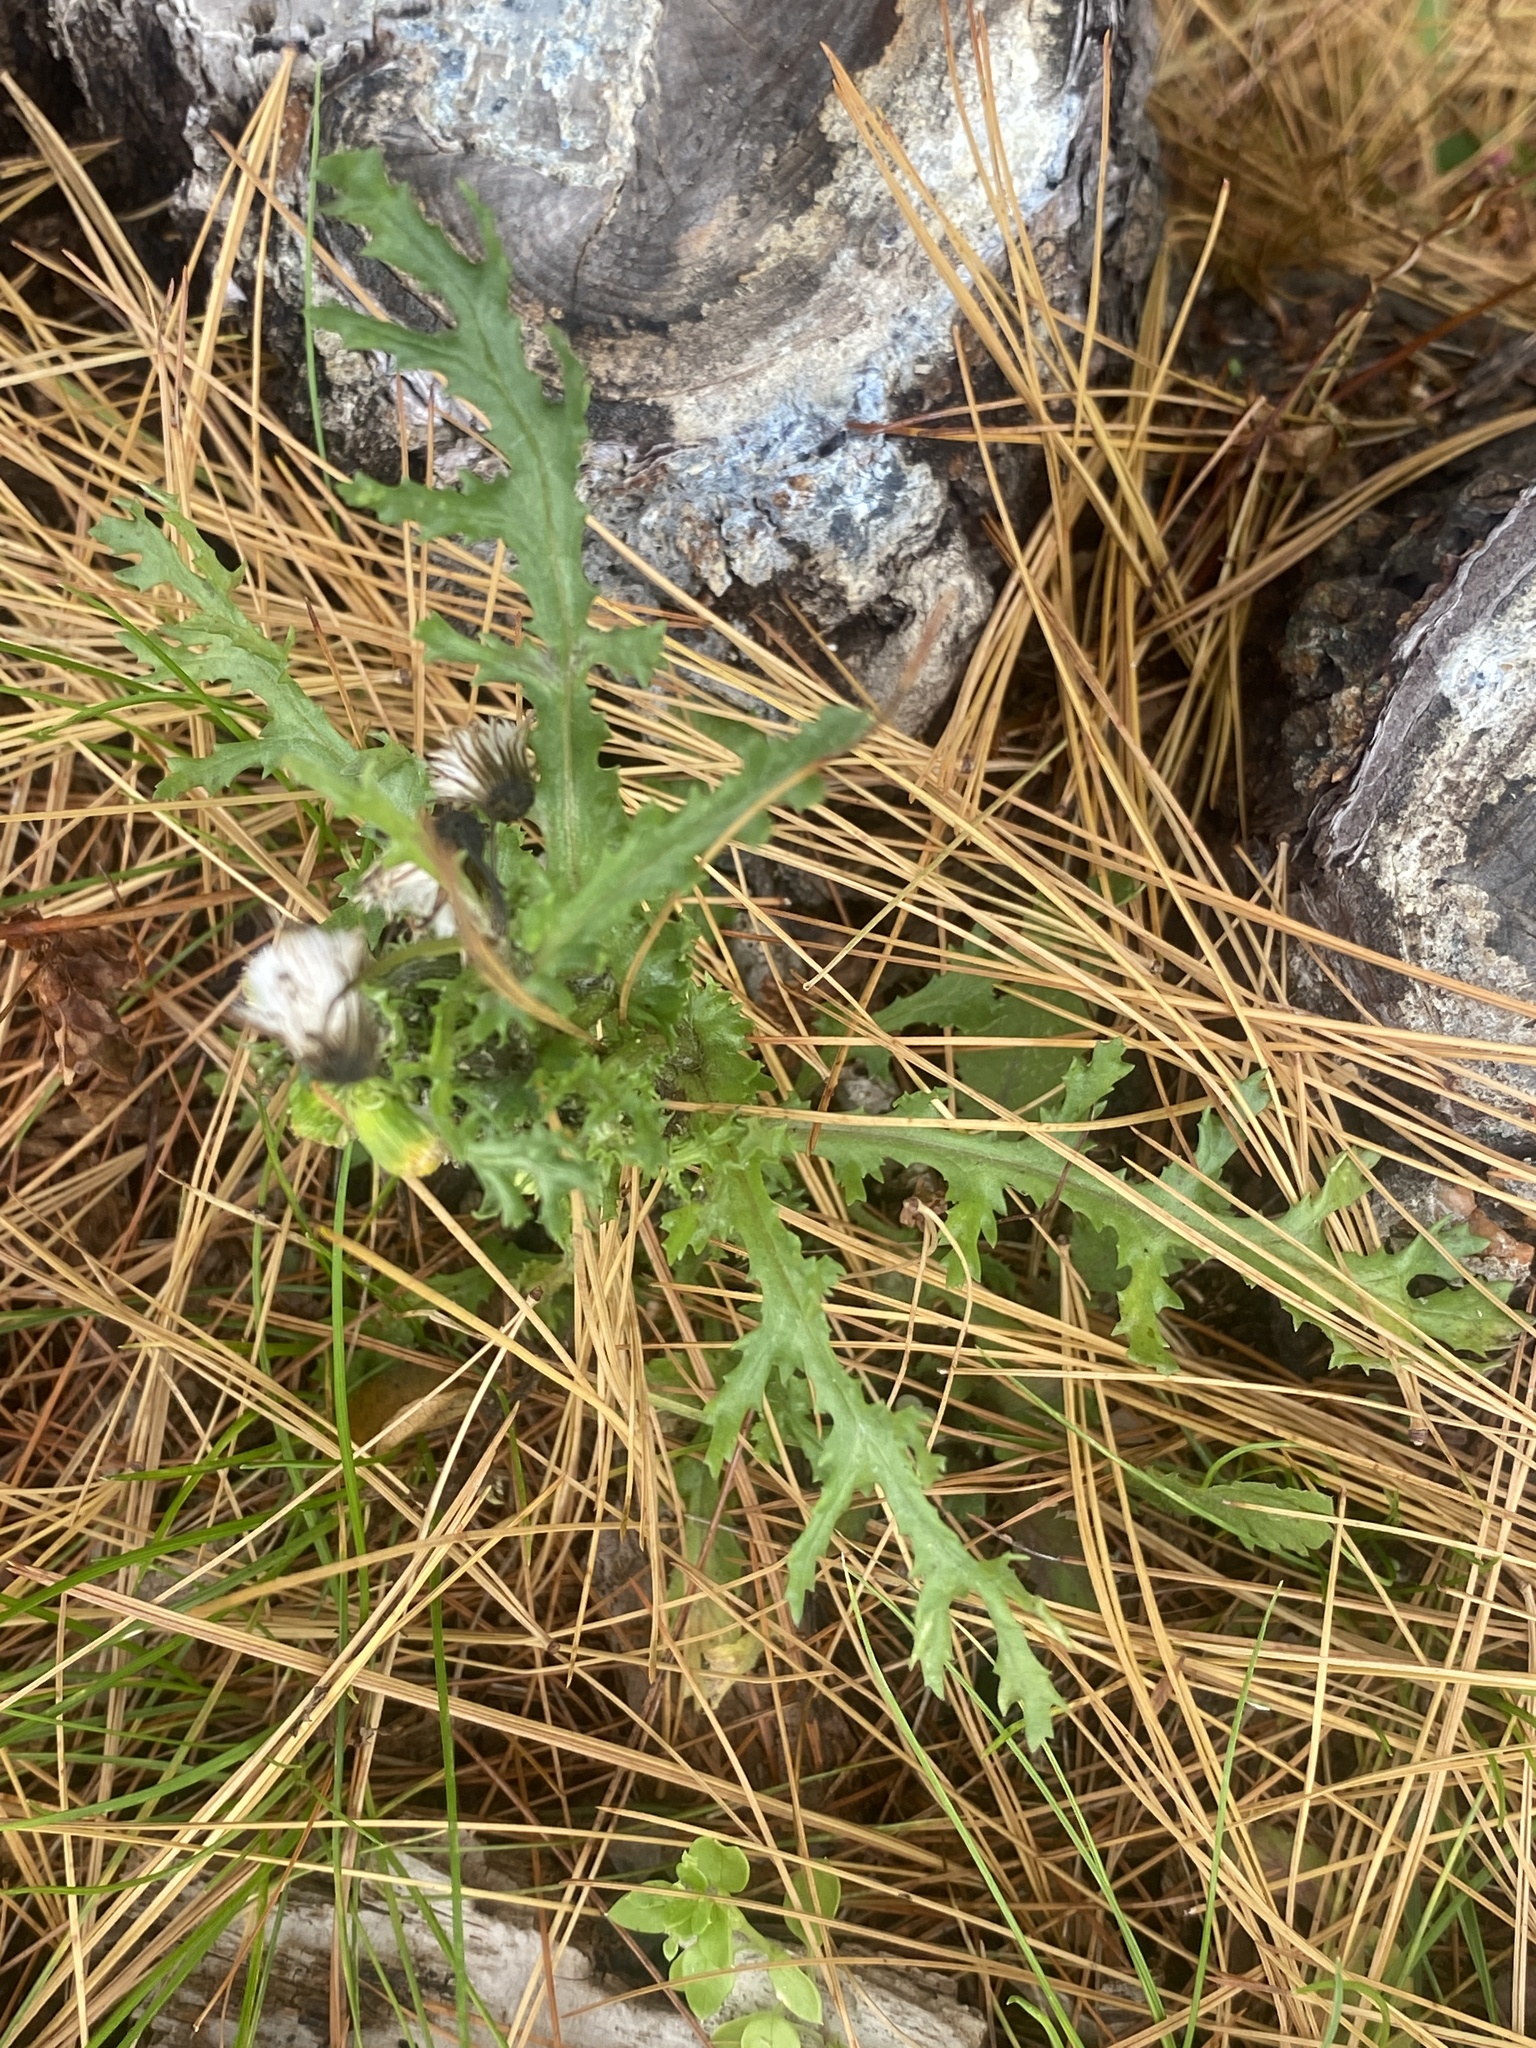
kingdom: Plantae
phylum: Tracheophyta
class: Magnoliopsida
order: Asterales
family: Asteraceae
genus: Senecio
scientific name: Senecio vulgaris
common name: Old-man-in-the-spring
